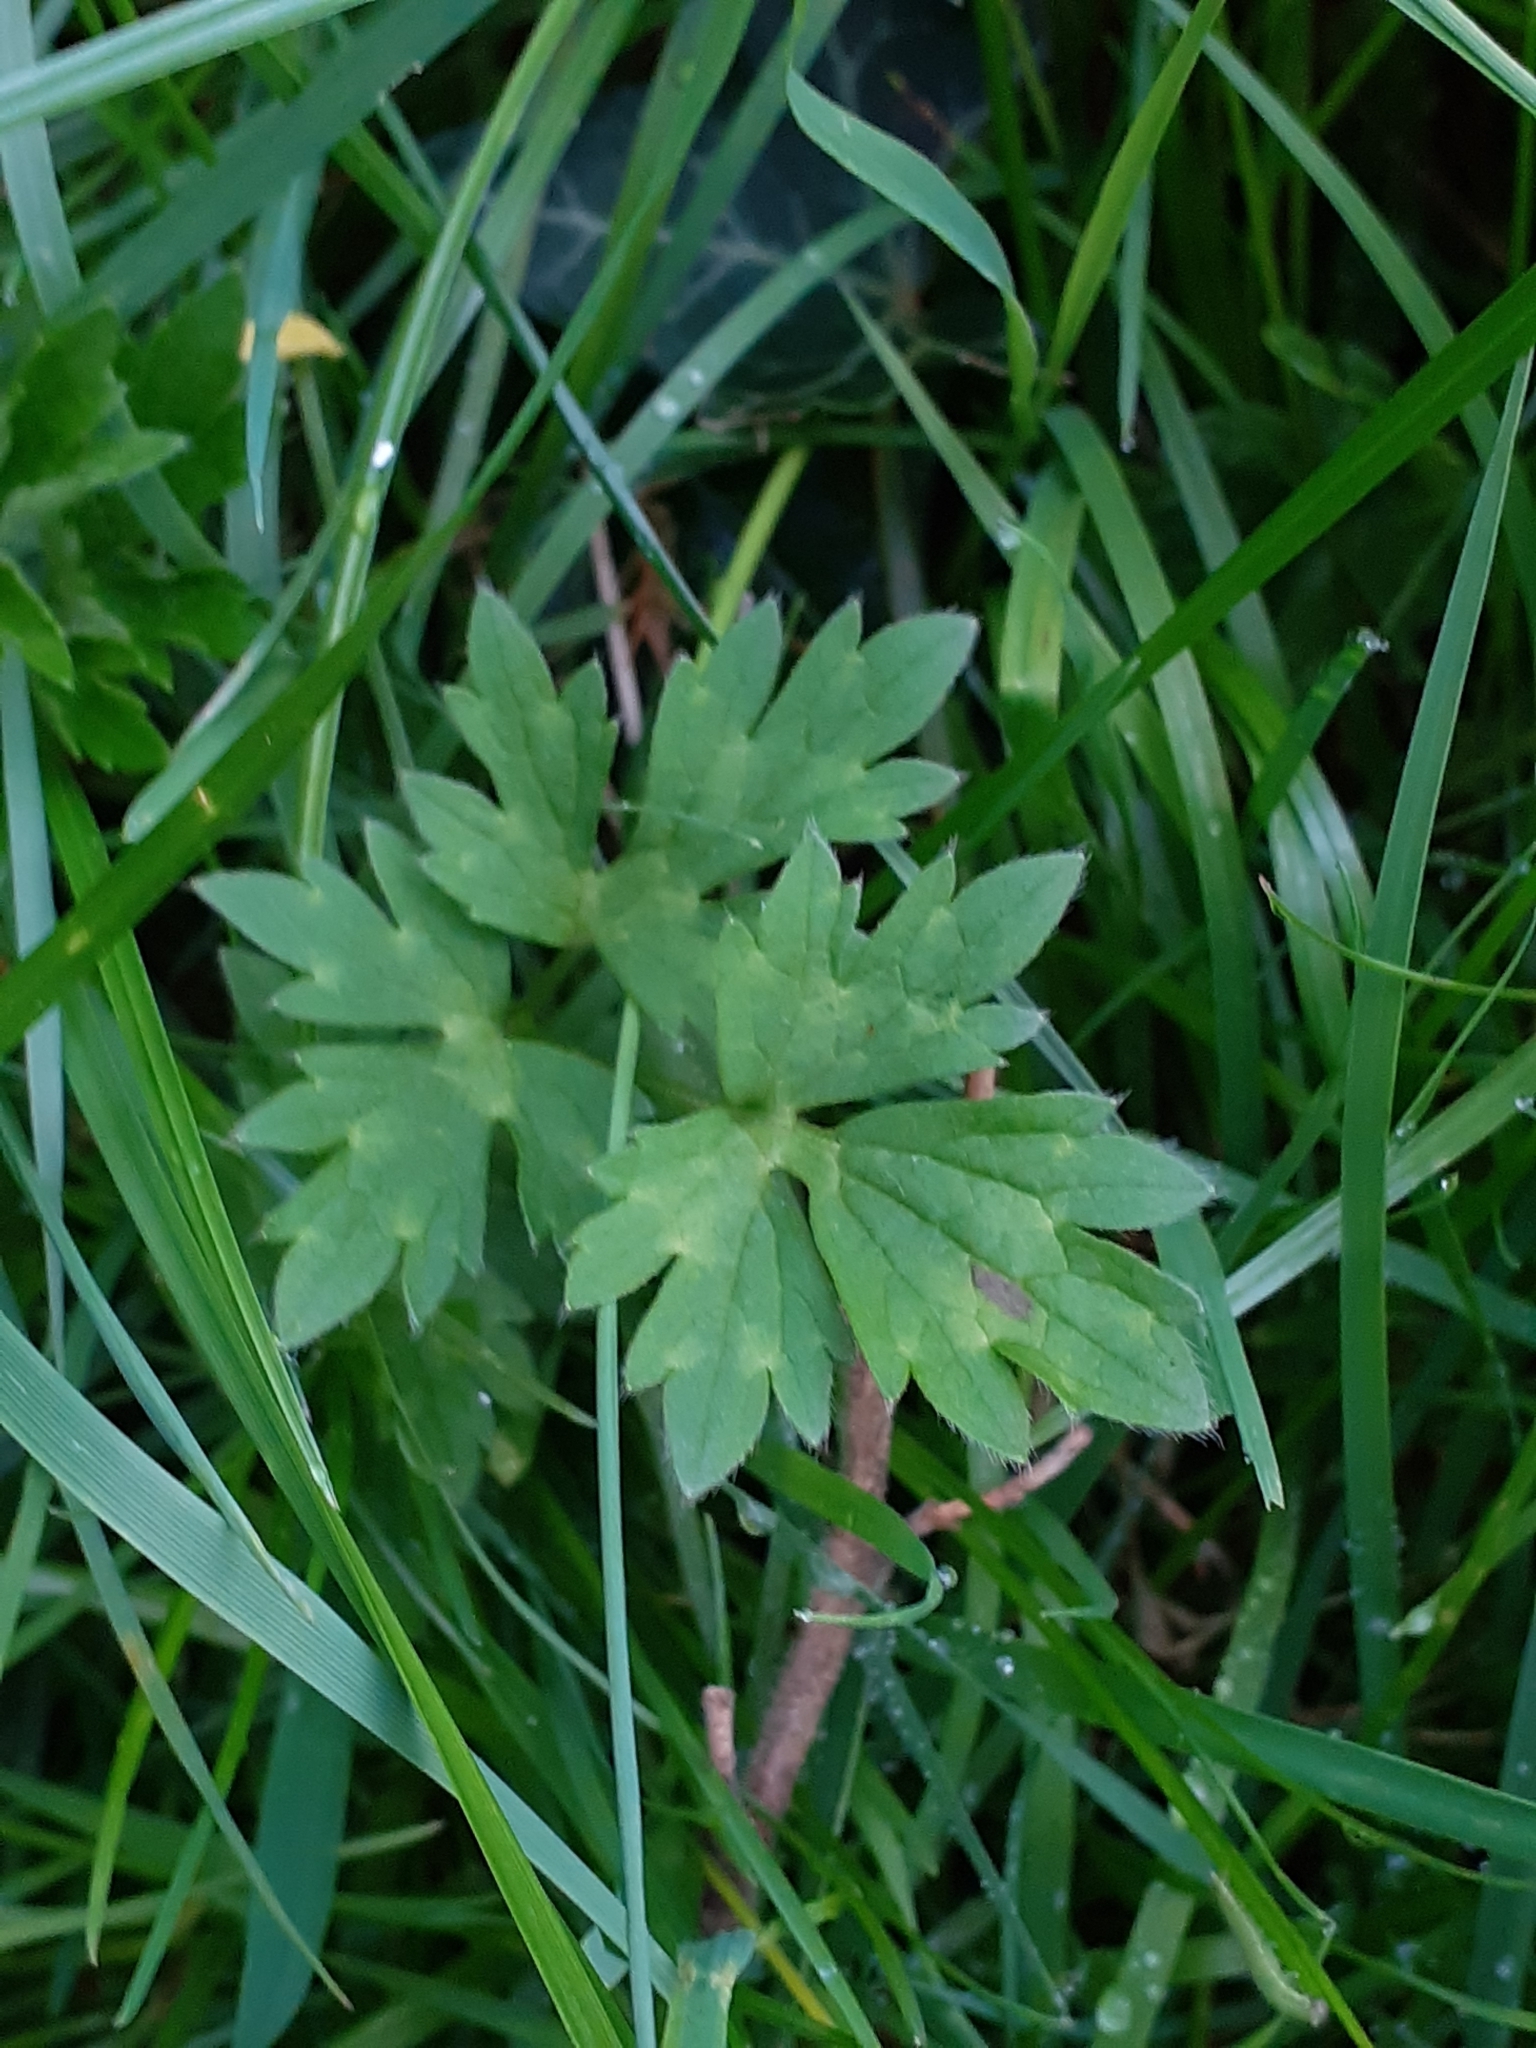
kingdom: Plantae
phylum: Tracheophyta
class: Magnoliopsida
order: Ranunculales
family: Ranunculaceae
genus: Ranunculus
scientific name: Ranunculus repens
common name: Creeping buttercup
